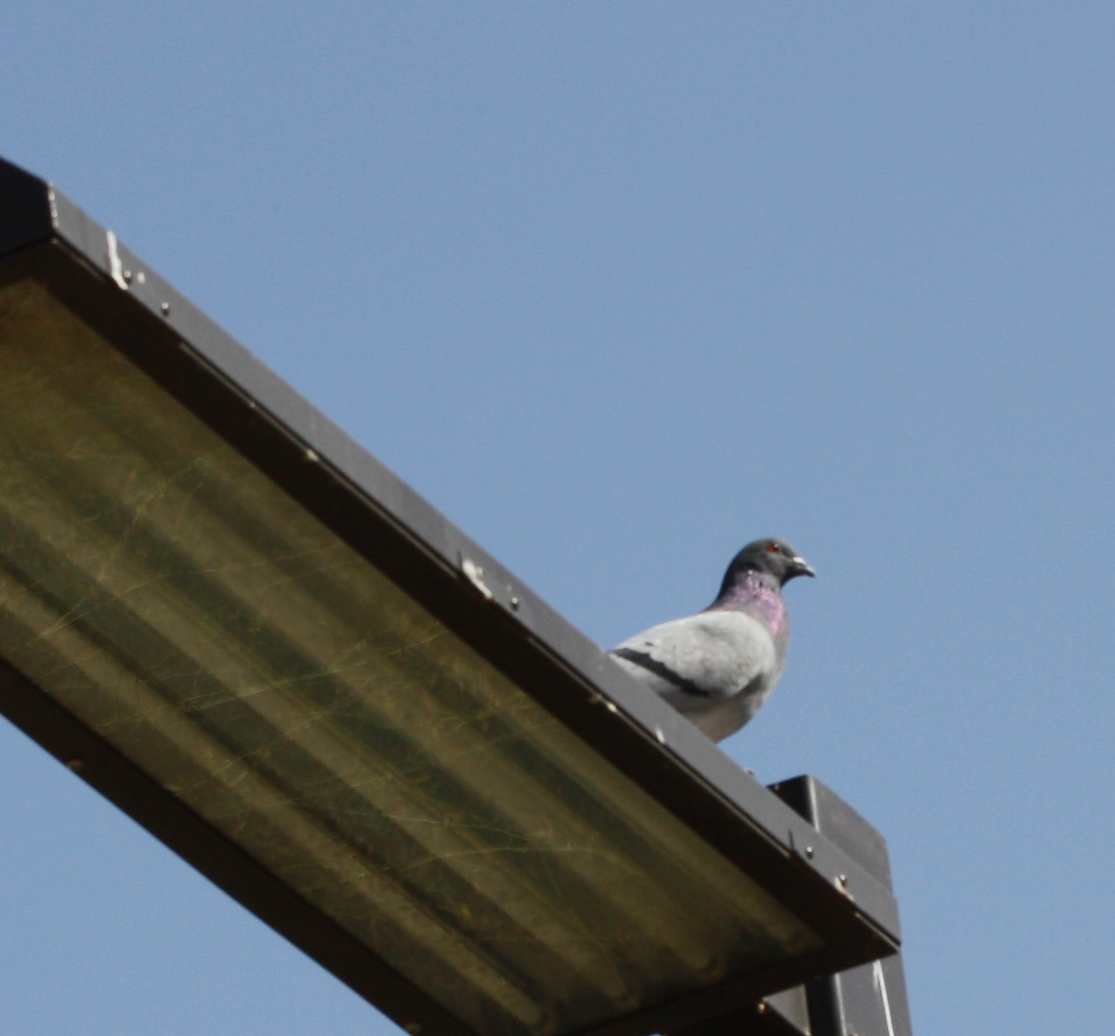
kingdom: Animalia
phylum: Chordata
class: Aves
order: Columbiformes
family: Columbidae
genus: Columba
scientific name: Columba livia
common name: Rock pigeon
